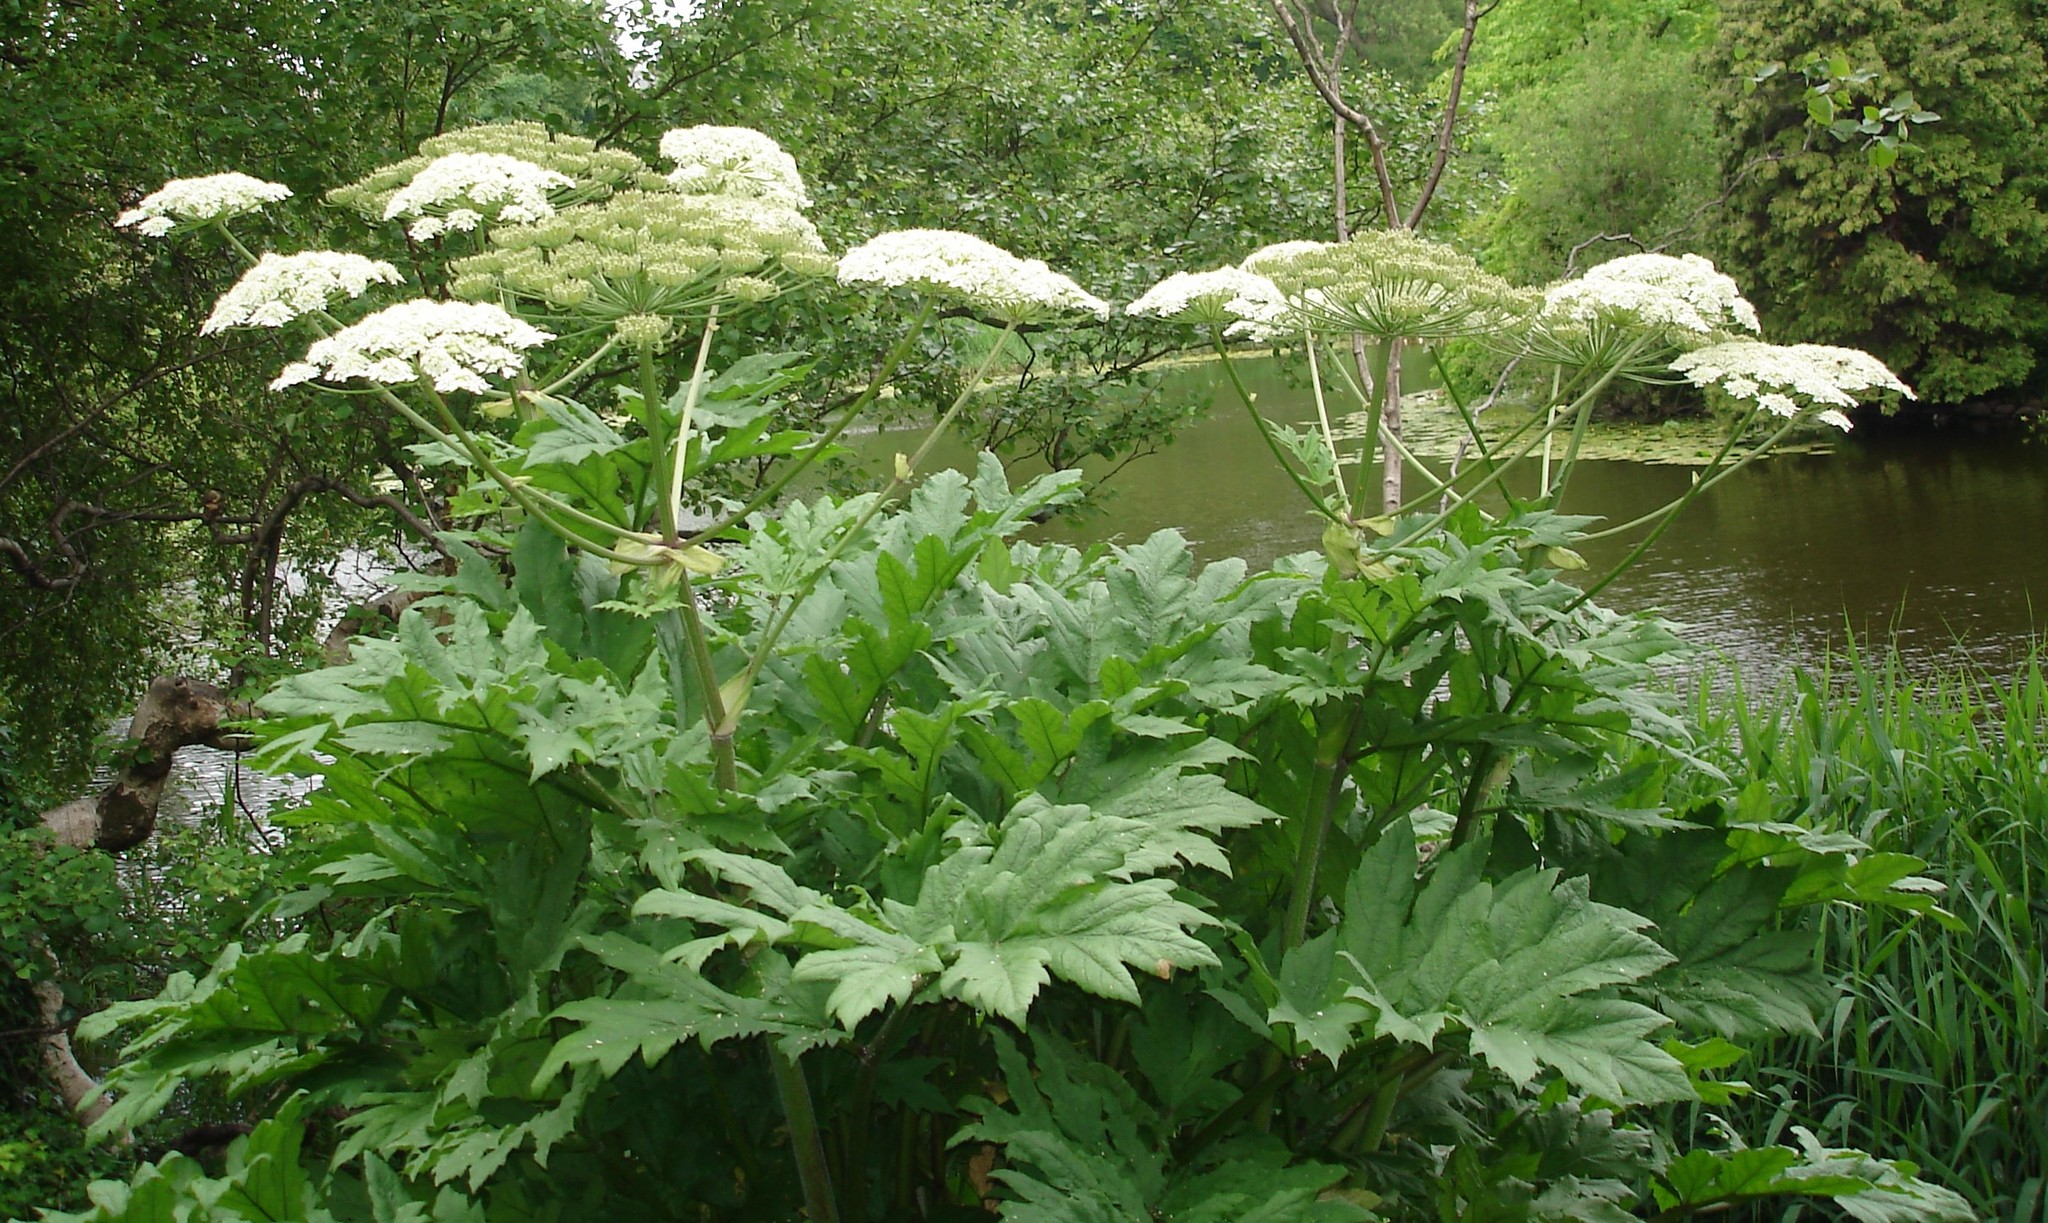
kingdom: Plantae
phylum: Tracheophyta
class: Magnoliopsida
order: Apiales
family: Apiaceae
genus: Heracleum
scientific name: Heracleum mantegazzianum
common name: Giant hogweed
